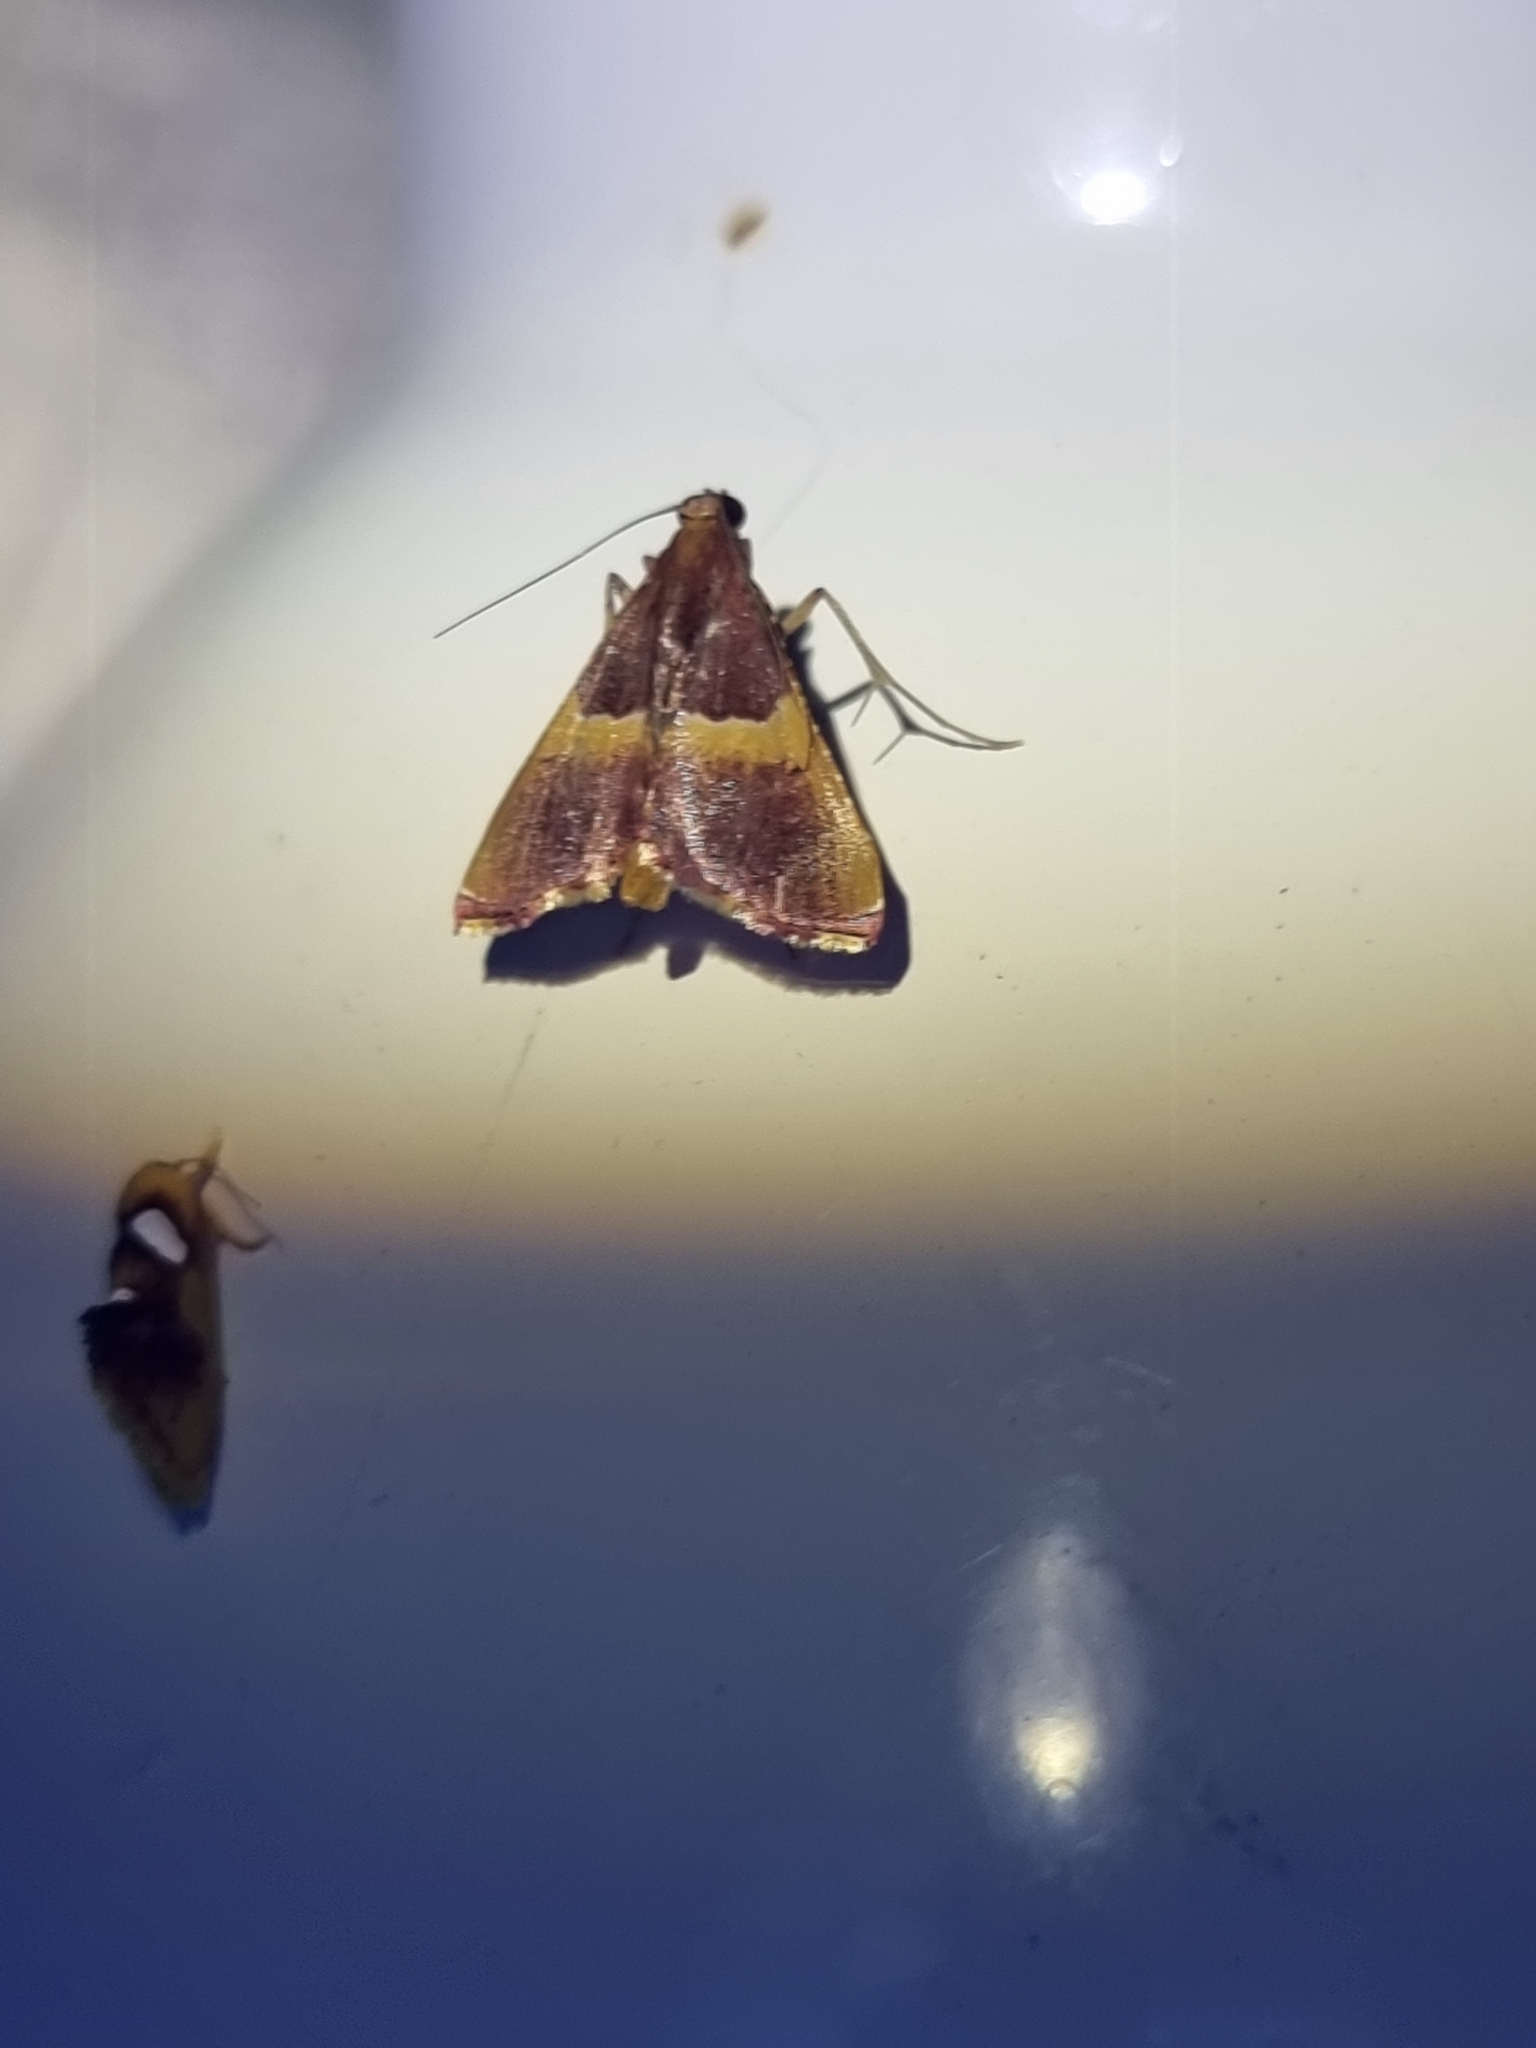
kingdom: Animalia
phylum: Arthropoda
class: Insecta
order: Lepidoptera
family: Pyralidae
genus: Endotricha
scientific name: Endotricha mesenterialis
